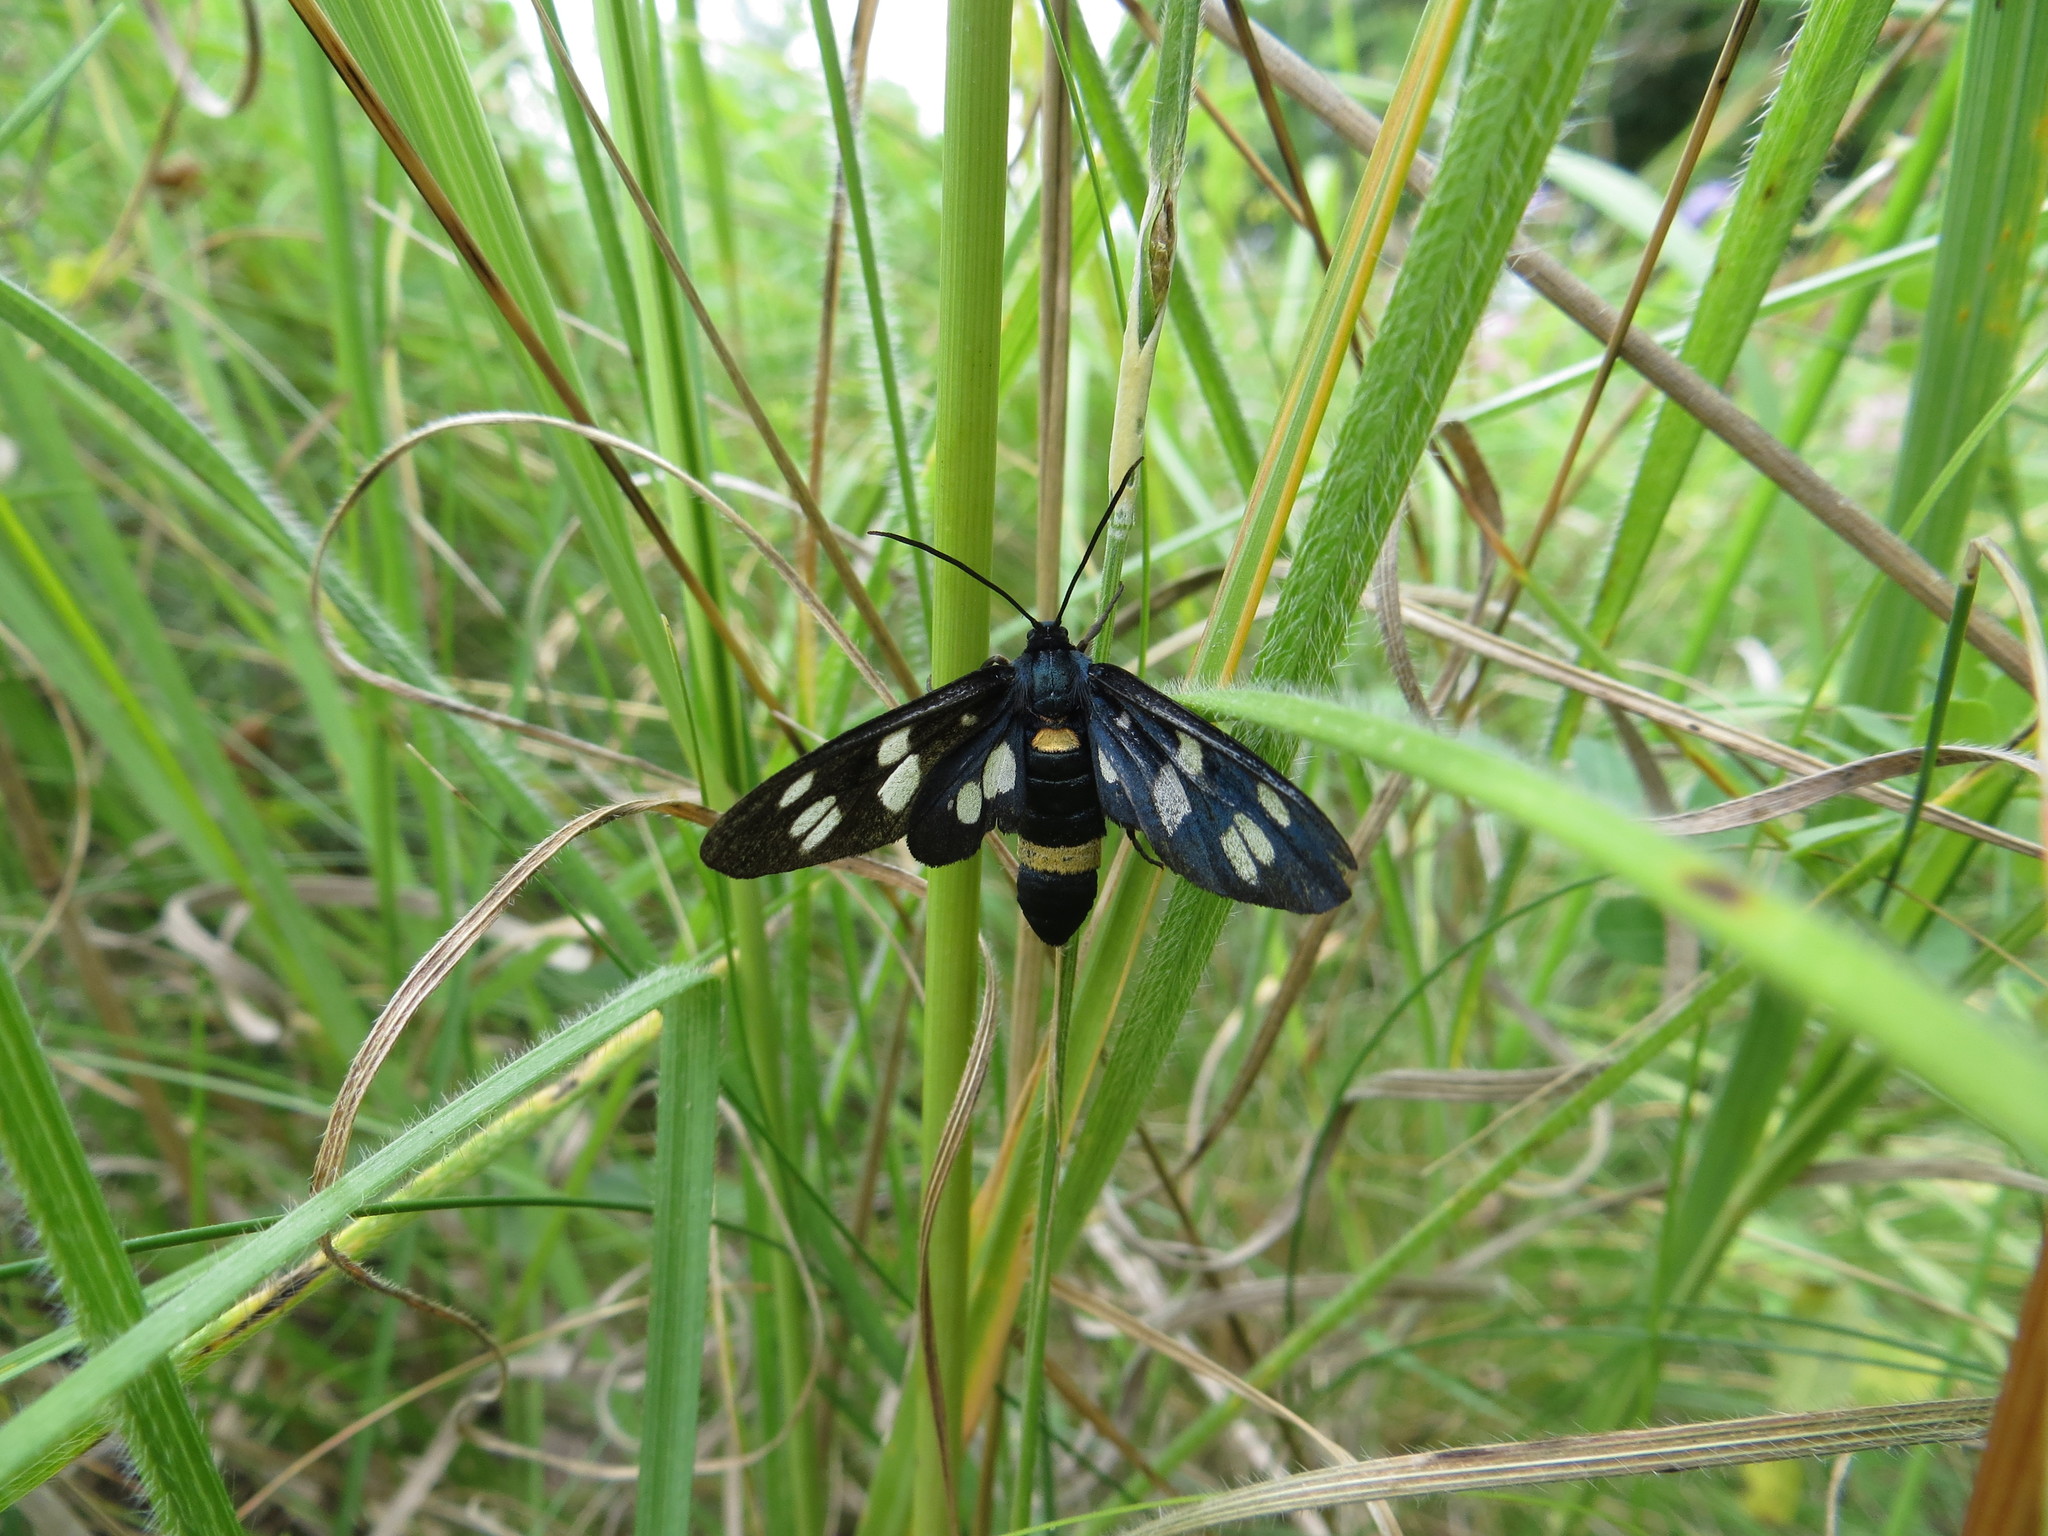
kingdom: Animalia
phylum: Arthropoda
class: Insecta
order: Lepidoptera
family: Erebidae
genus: Amata
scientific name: Amata nigricornis
